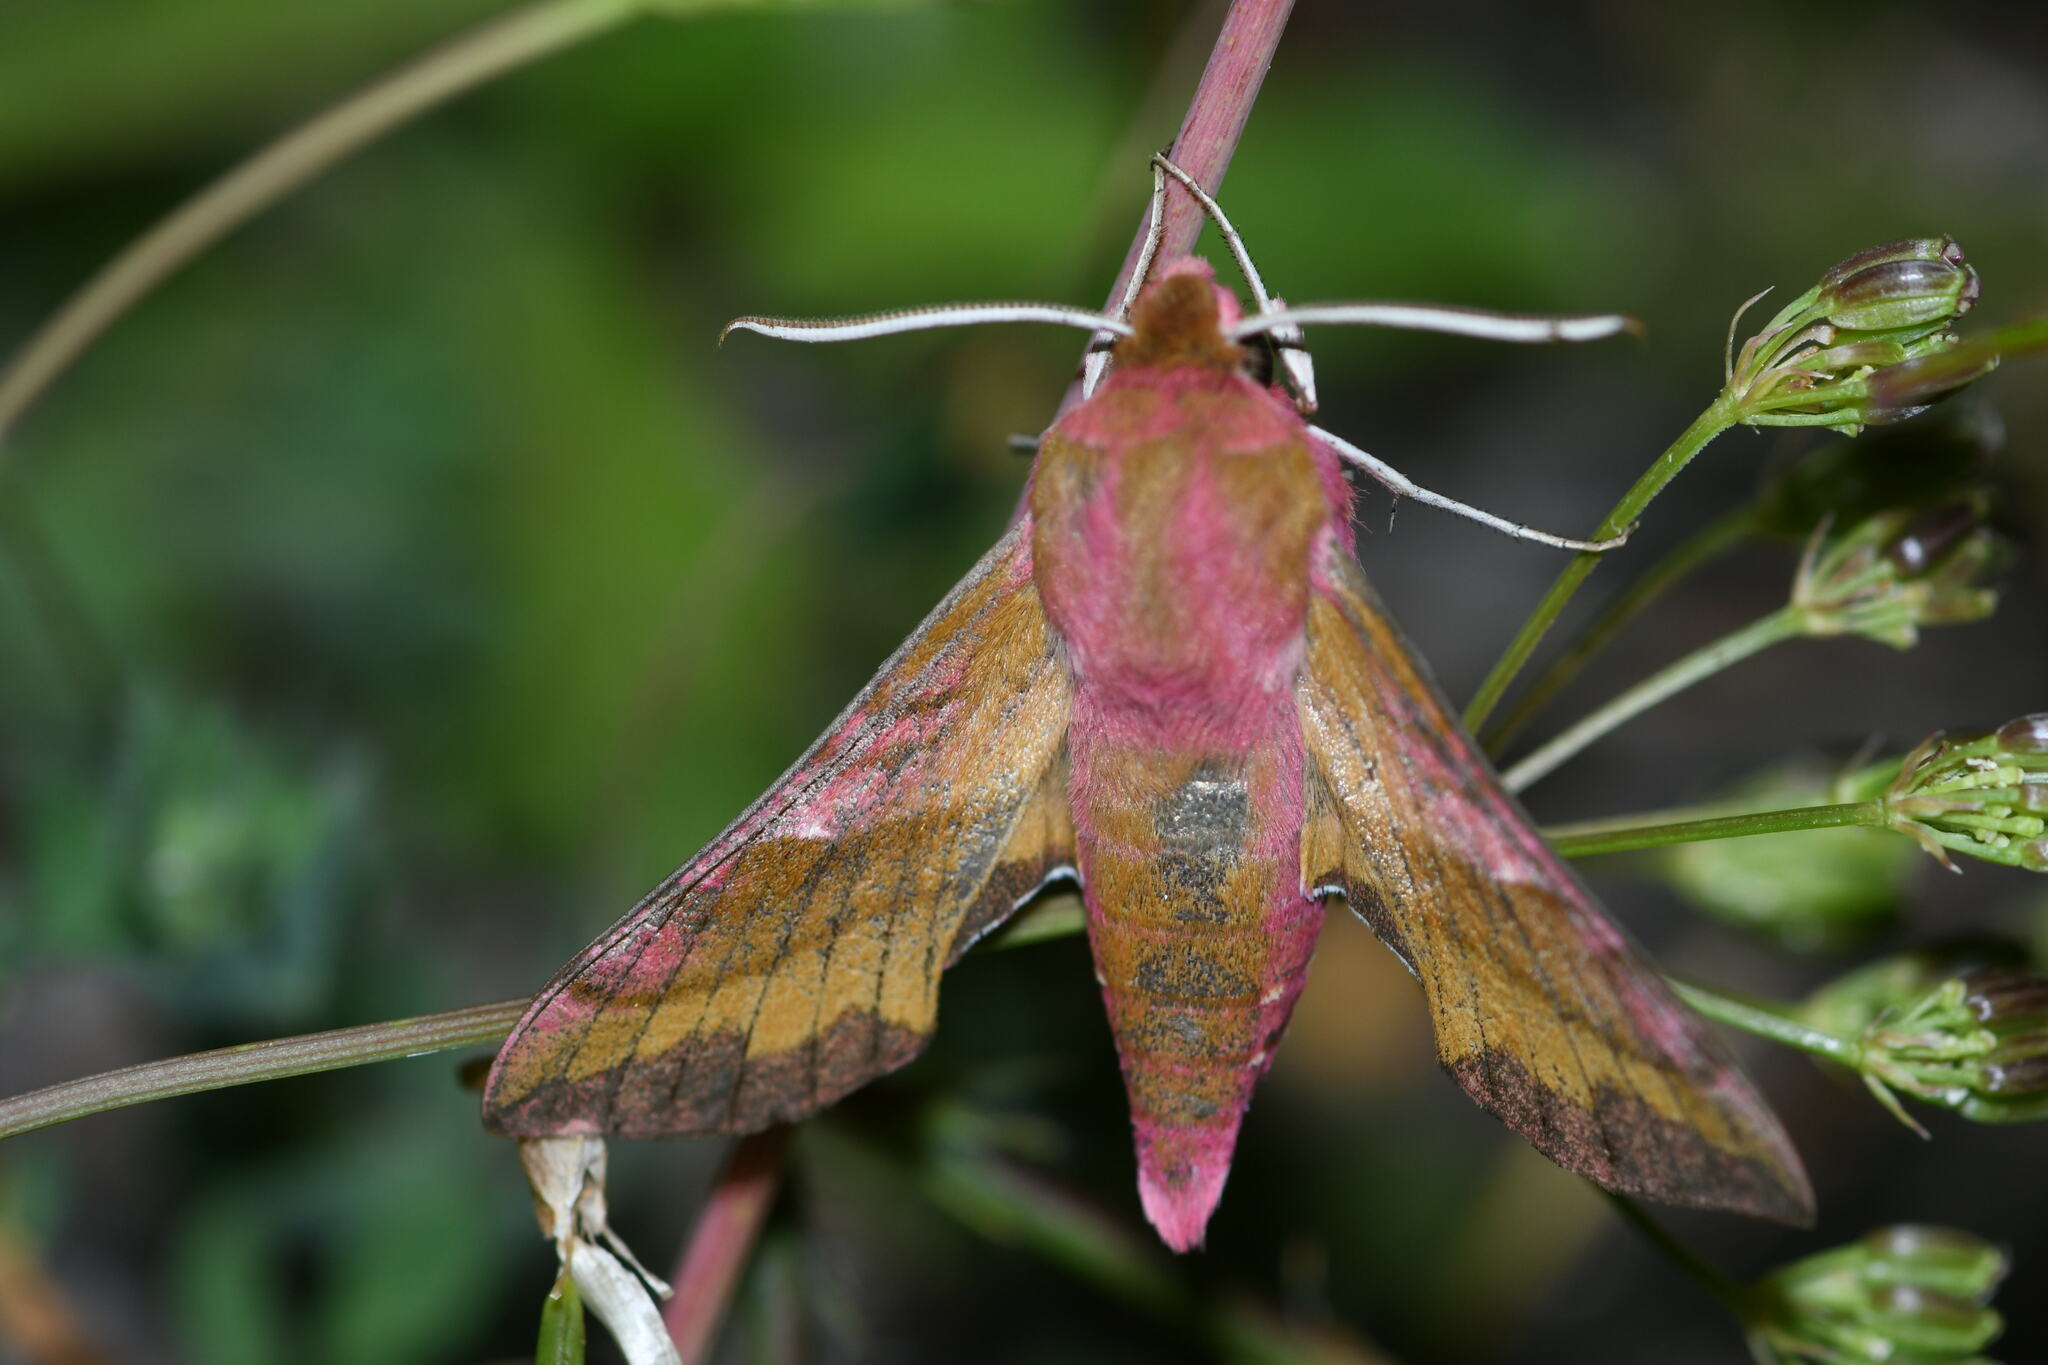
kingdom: Animalia
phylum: Arthropoda
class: Insecta
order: Lepidoptera
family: Sphingidae
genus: Deilephila
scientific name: Deilephila porcellus
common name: Small elephant hawk-moth
